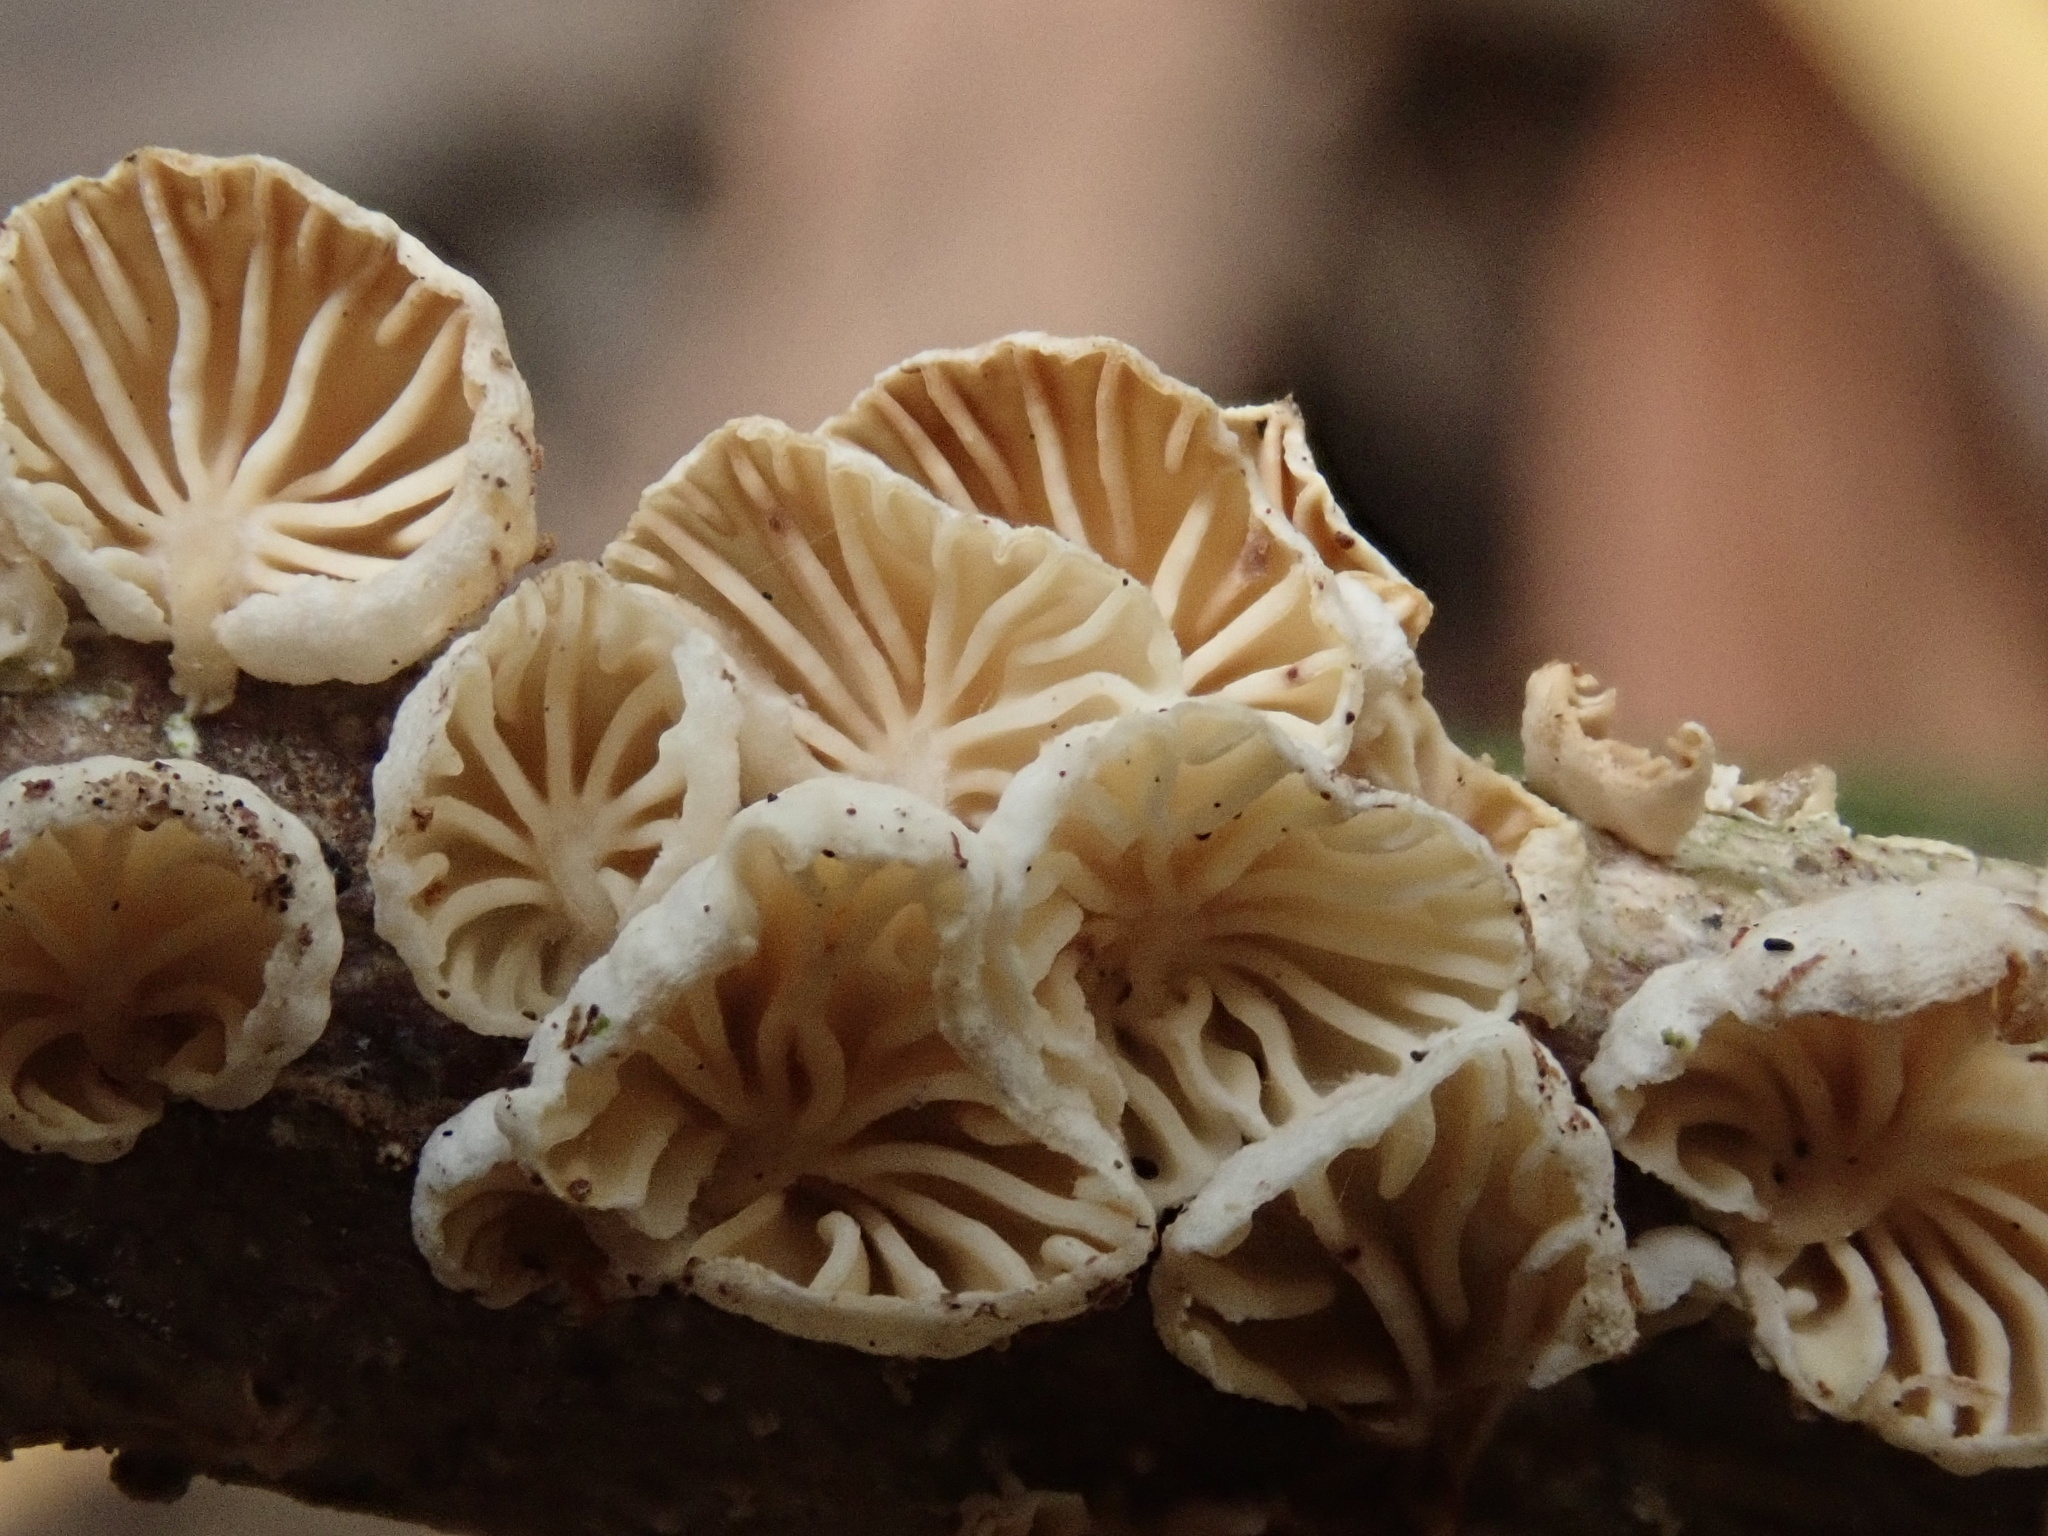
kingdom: Fungi
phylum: Basidiomycota
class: Agaricomycetes
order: Agaricales
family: Omphalotaceae
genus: Collybiopsis
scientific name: Collybiopsis
